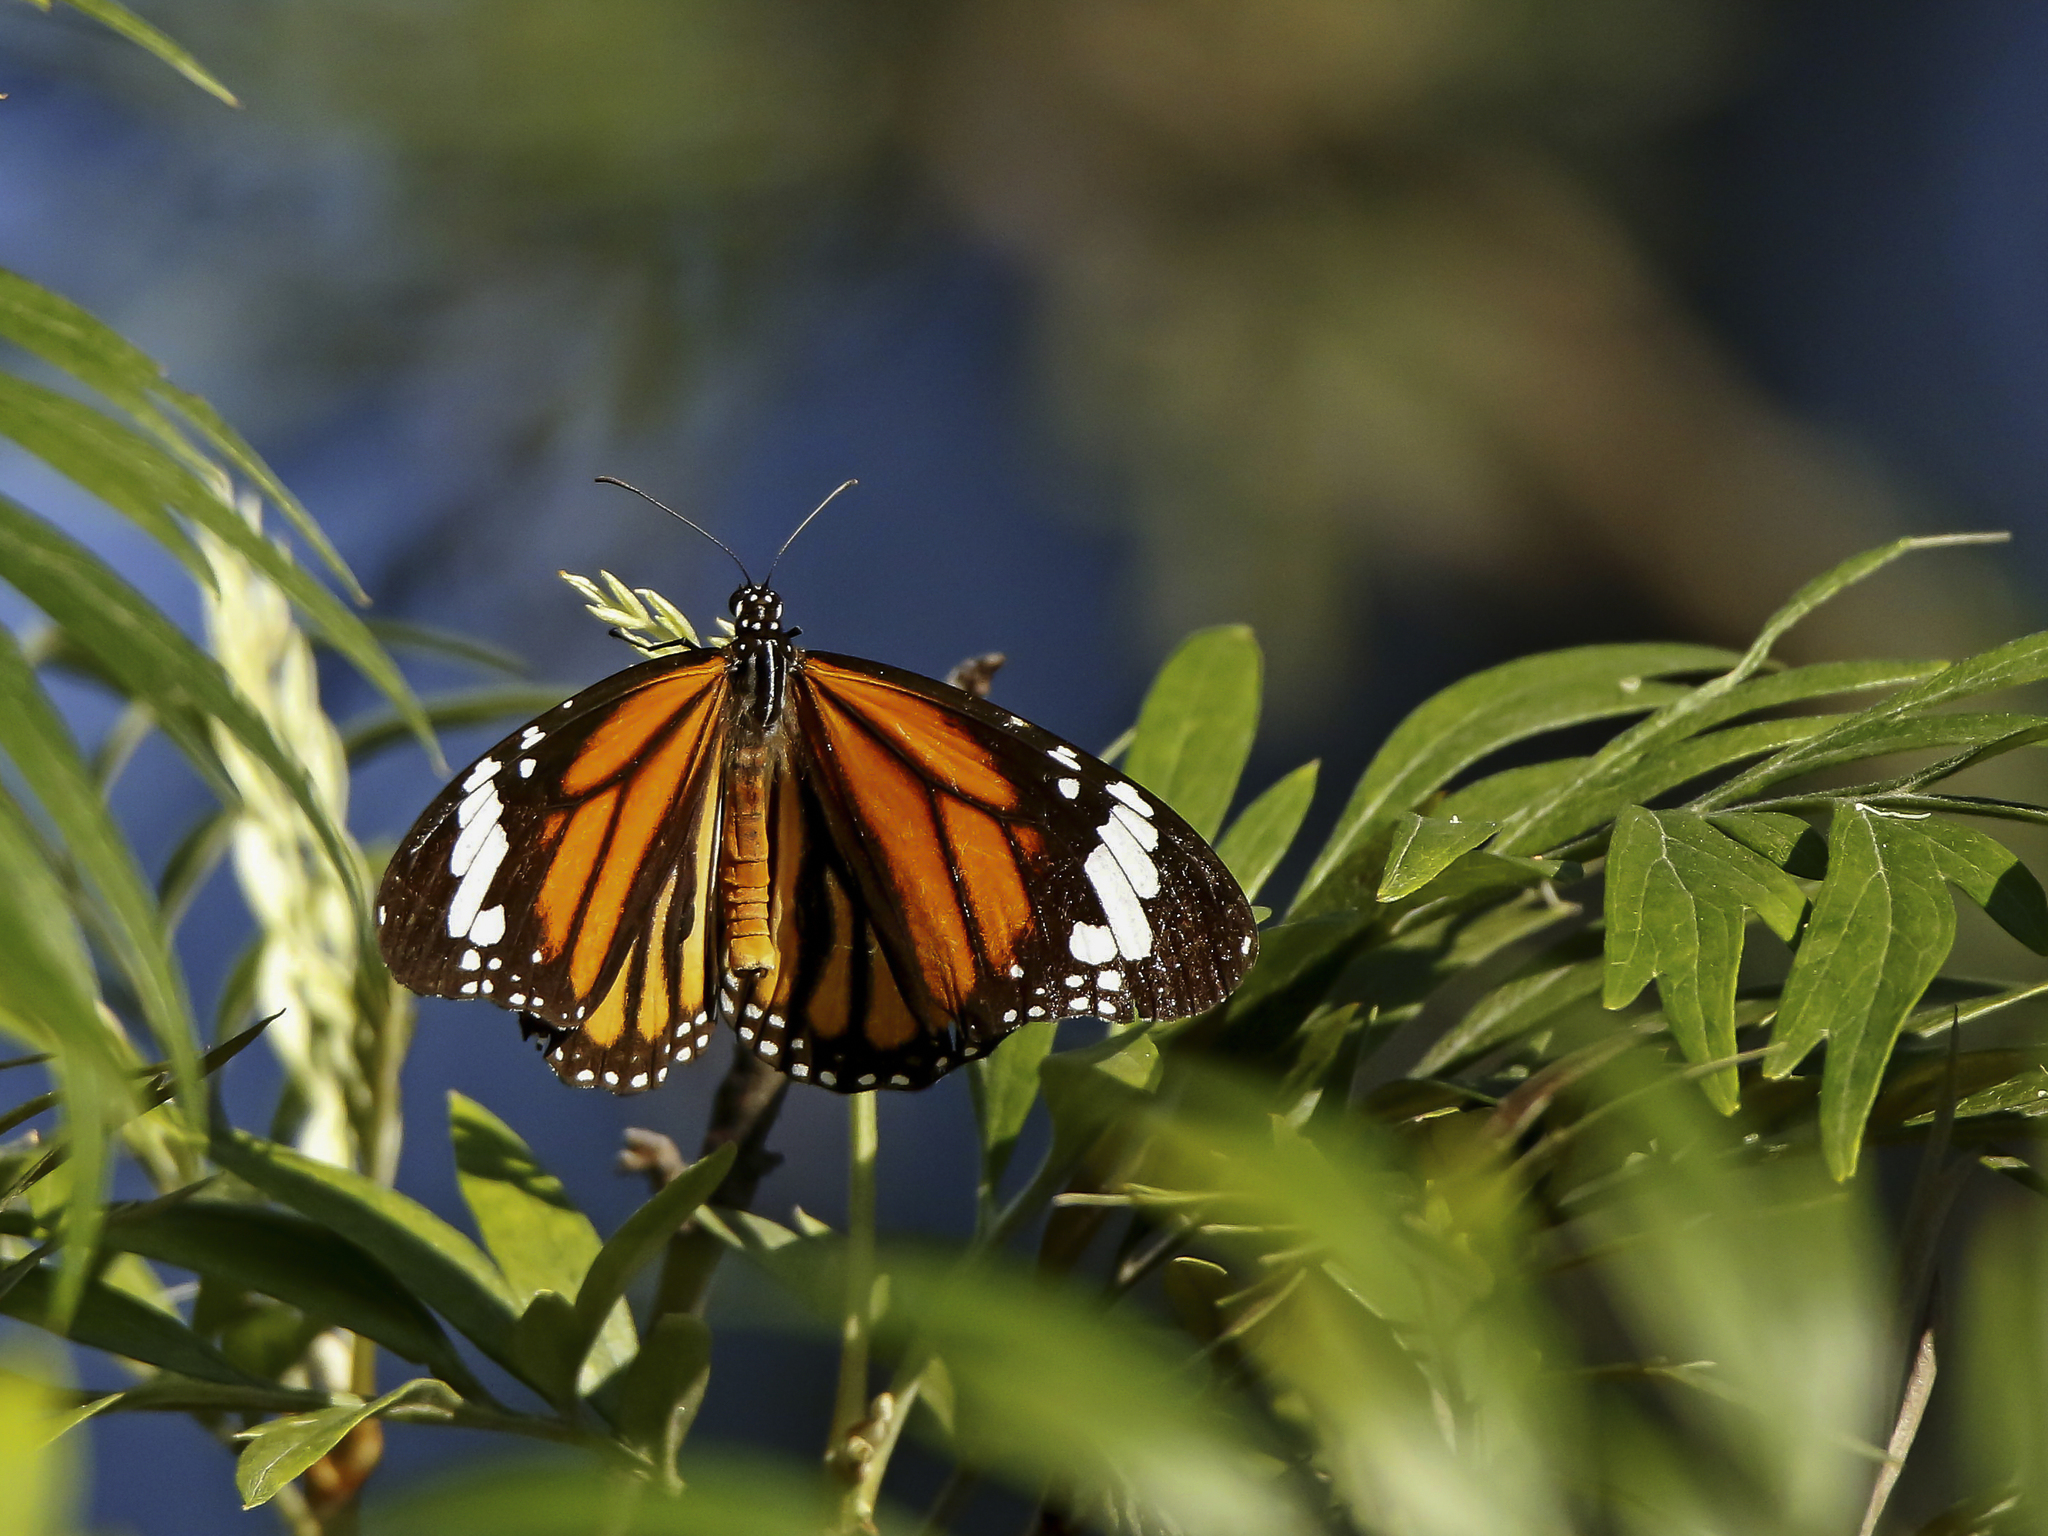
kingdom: Animalia
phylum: Arthropoda
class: Insecta
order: Lepidoptera
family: Nymphalidae
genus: Danaus
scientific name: Danaus genutia
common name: Common tiger butterfly
